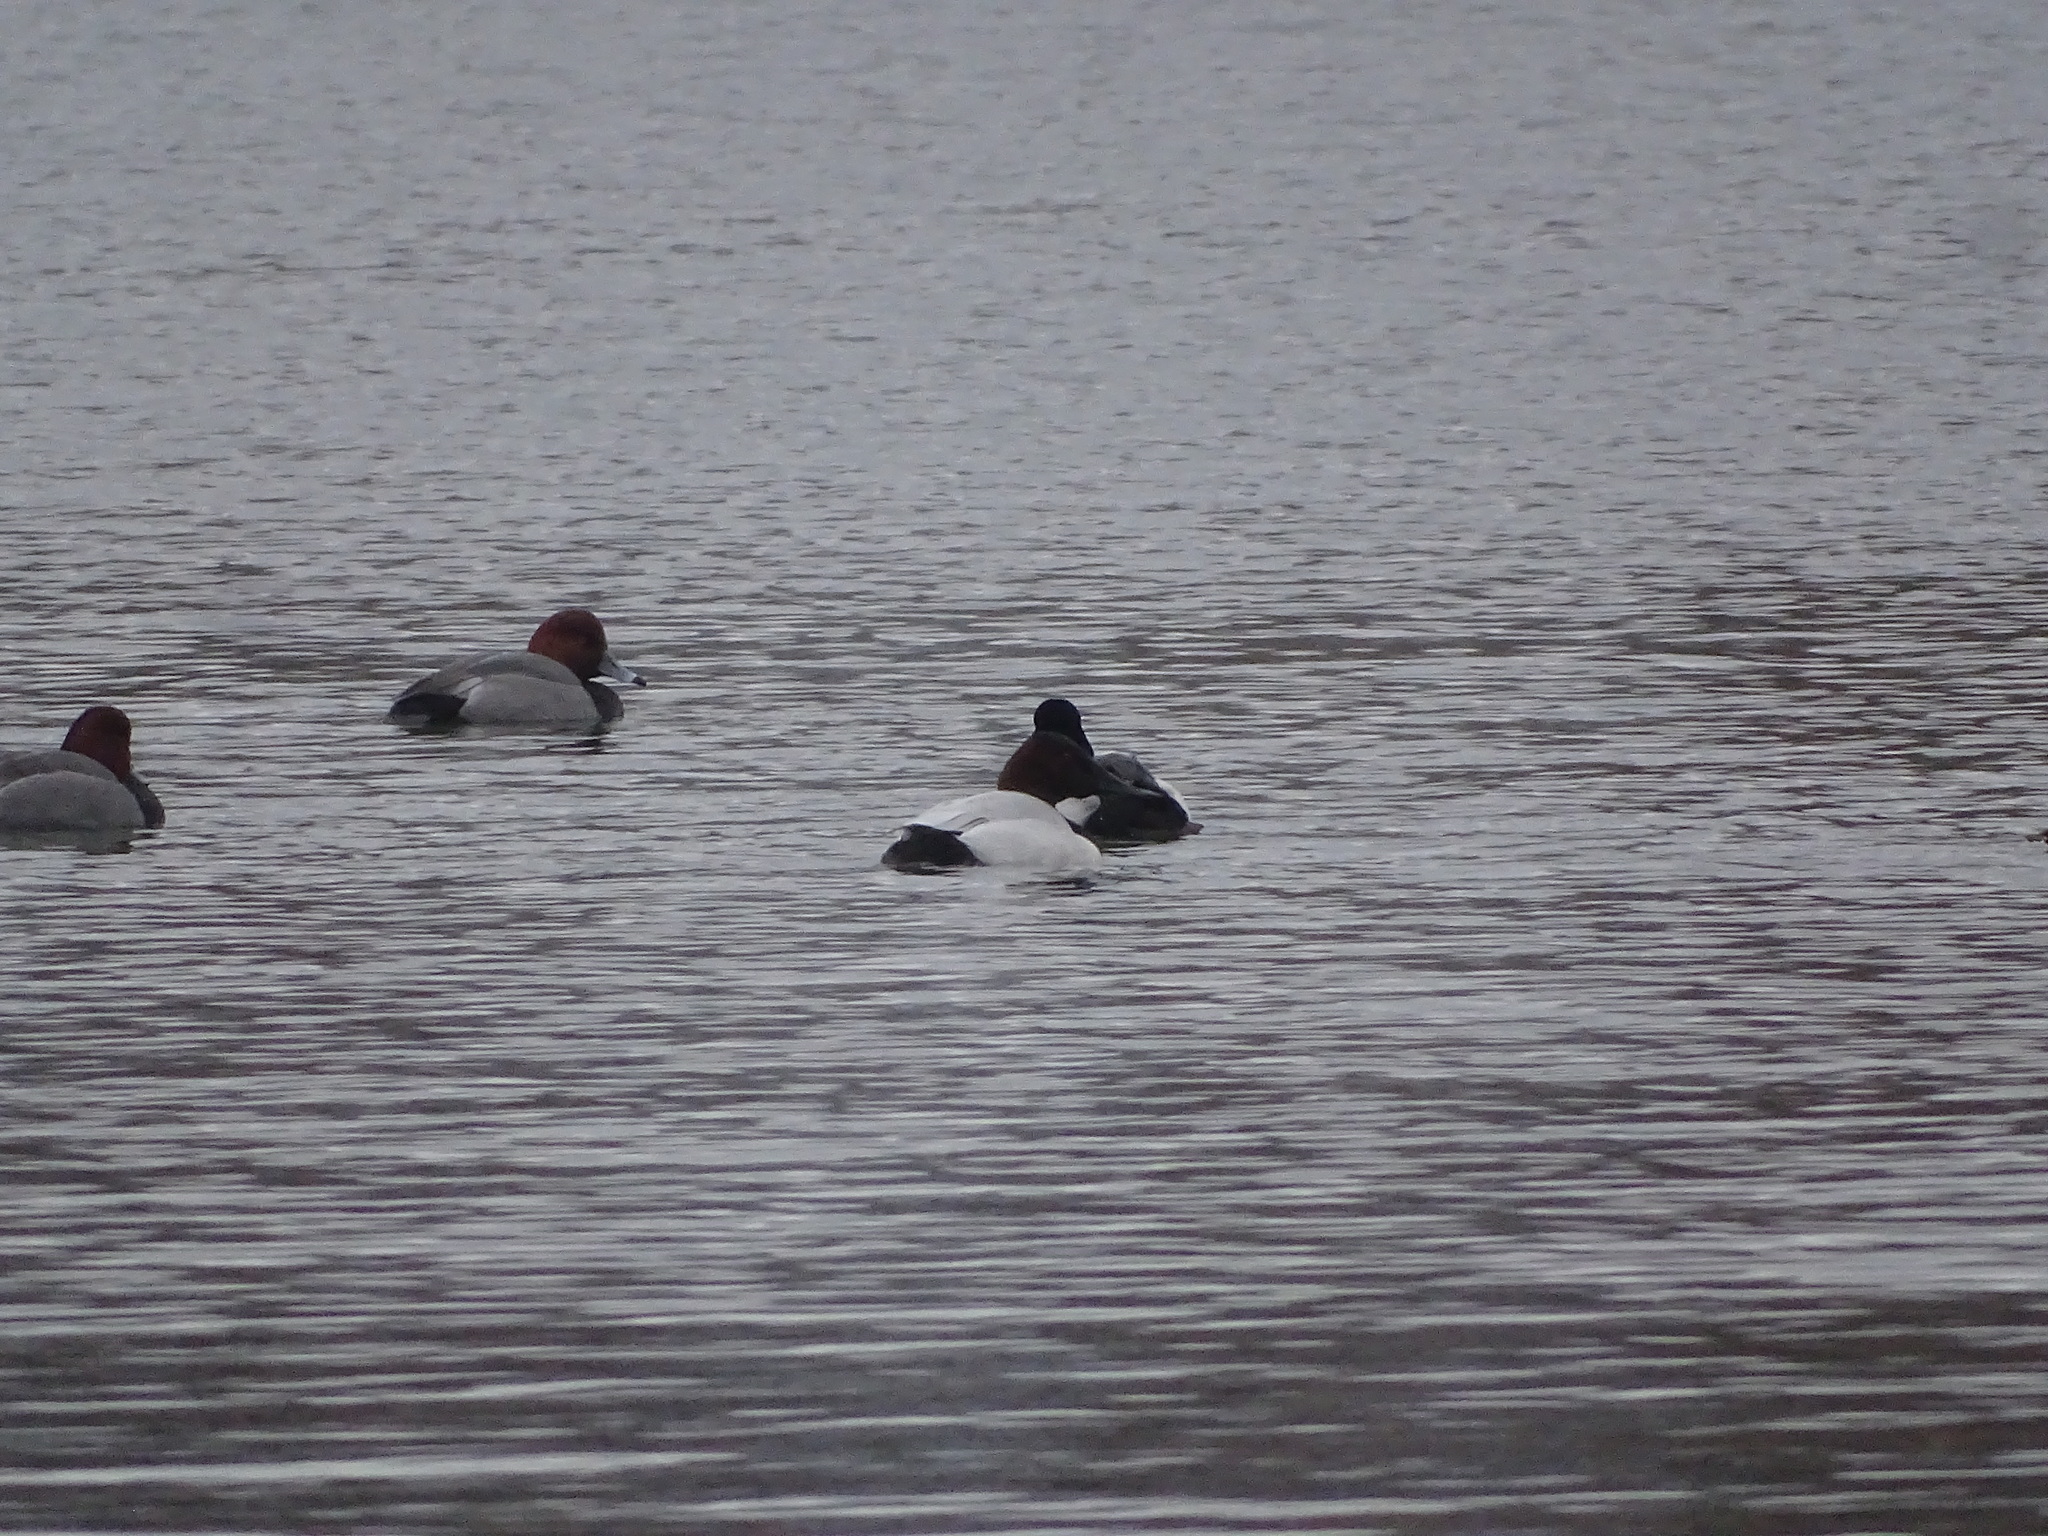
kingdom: Animalia
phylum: Chordata
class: Aves
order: Anseriformes
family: Anatidae
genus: Aythya
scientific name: Aythya valisineria
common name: Canvasback
